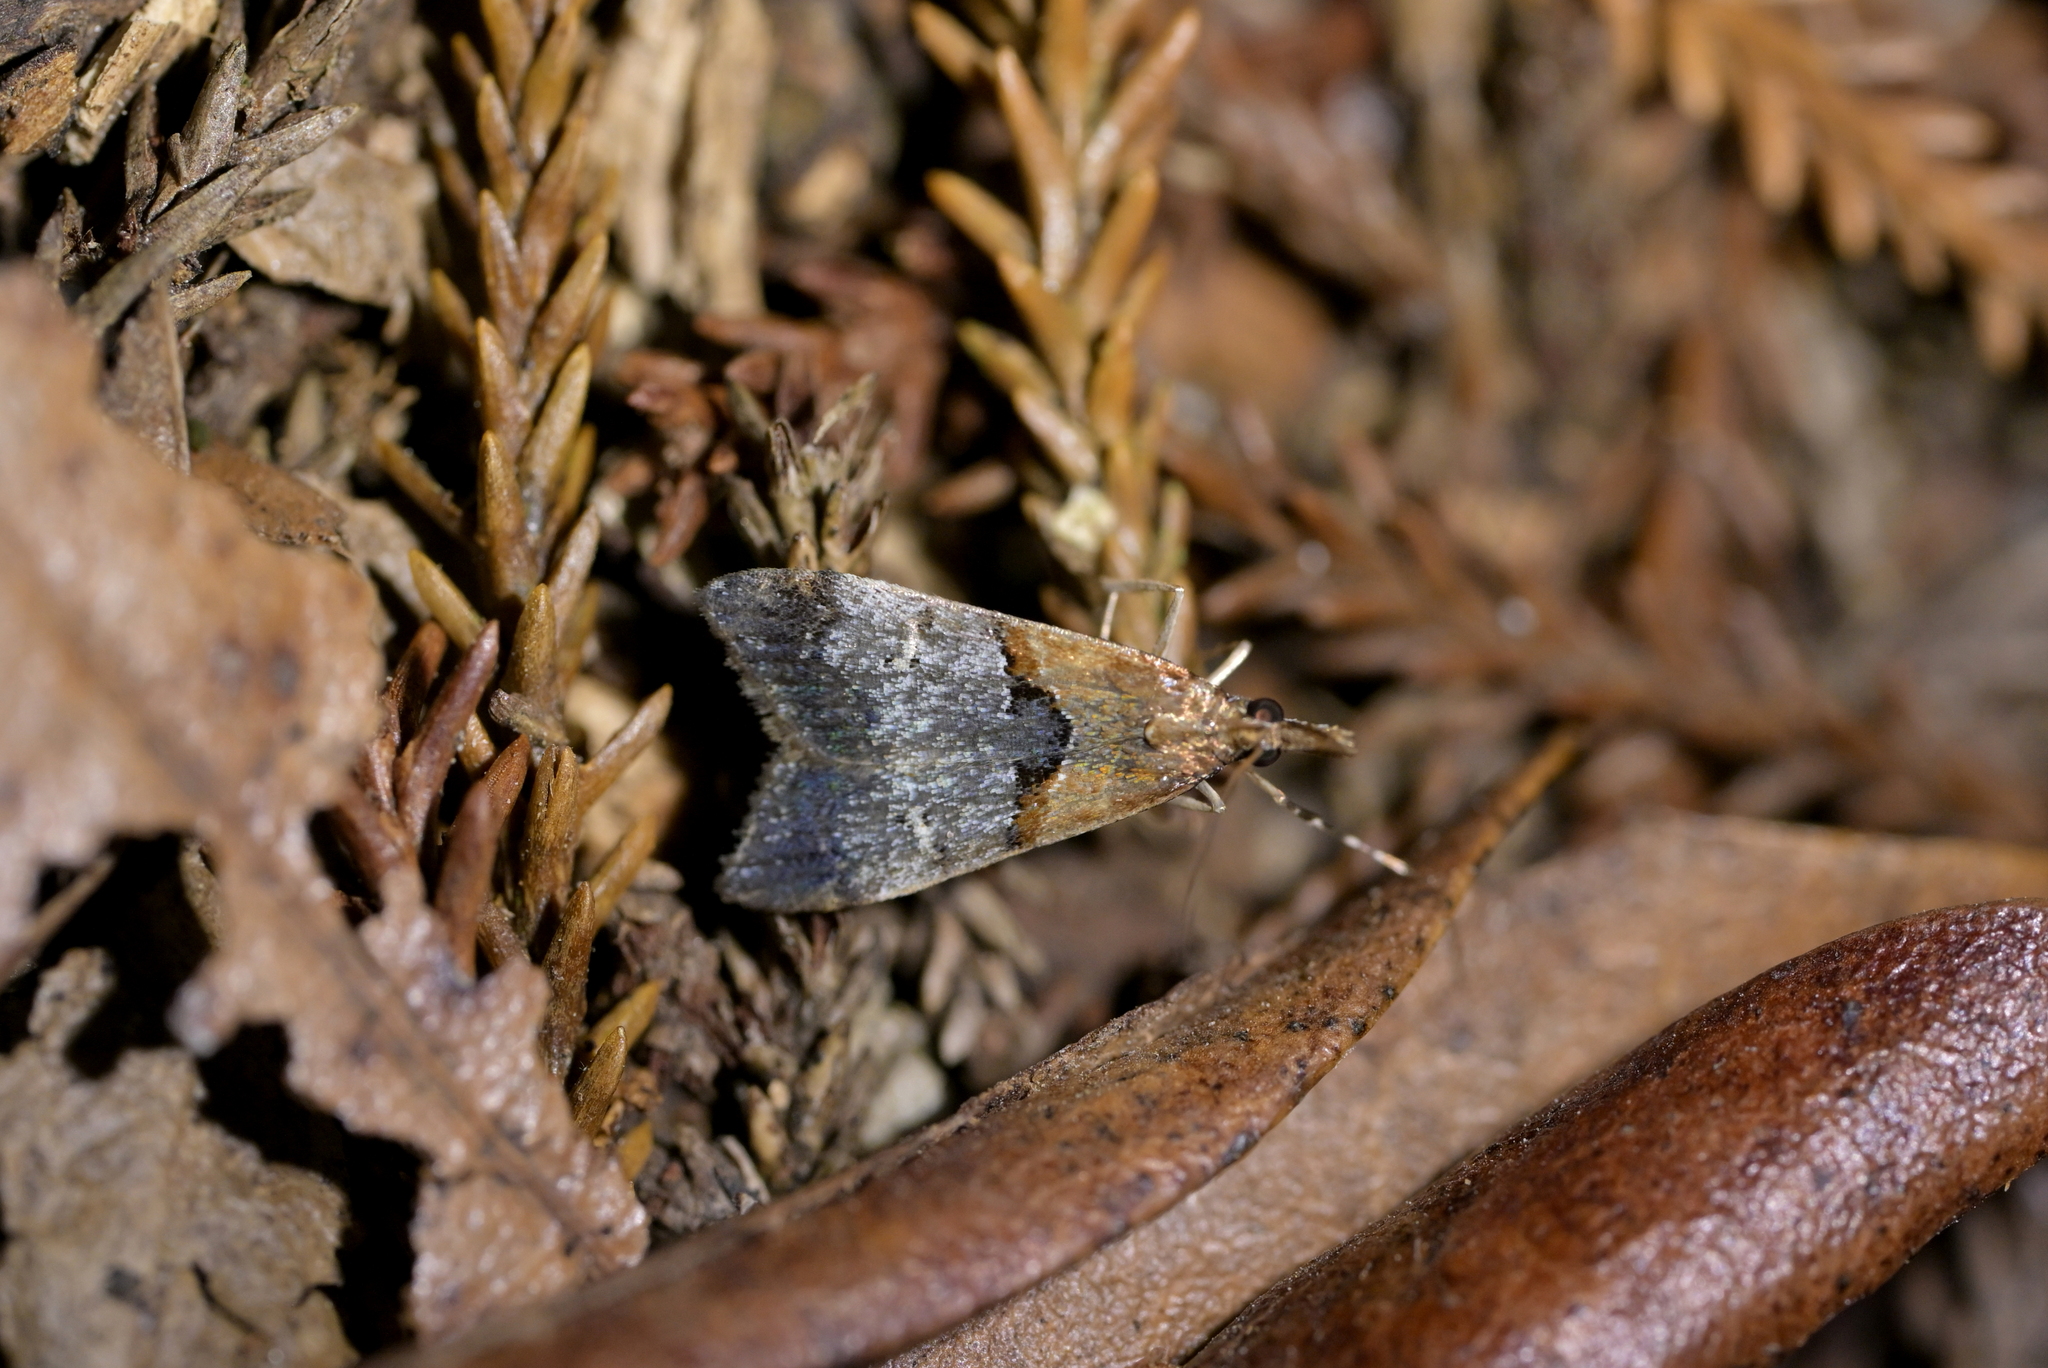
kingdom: Animalia
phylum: Arthropoda
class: Insecta
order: Lepidoptera
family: Crambidae
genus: Antiscopa
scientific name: Antiscopa epicomia
